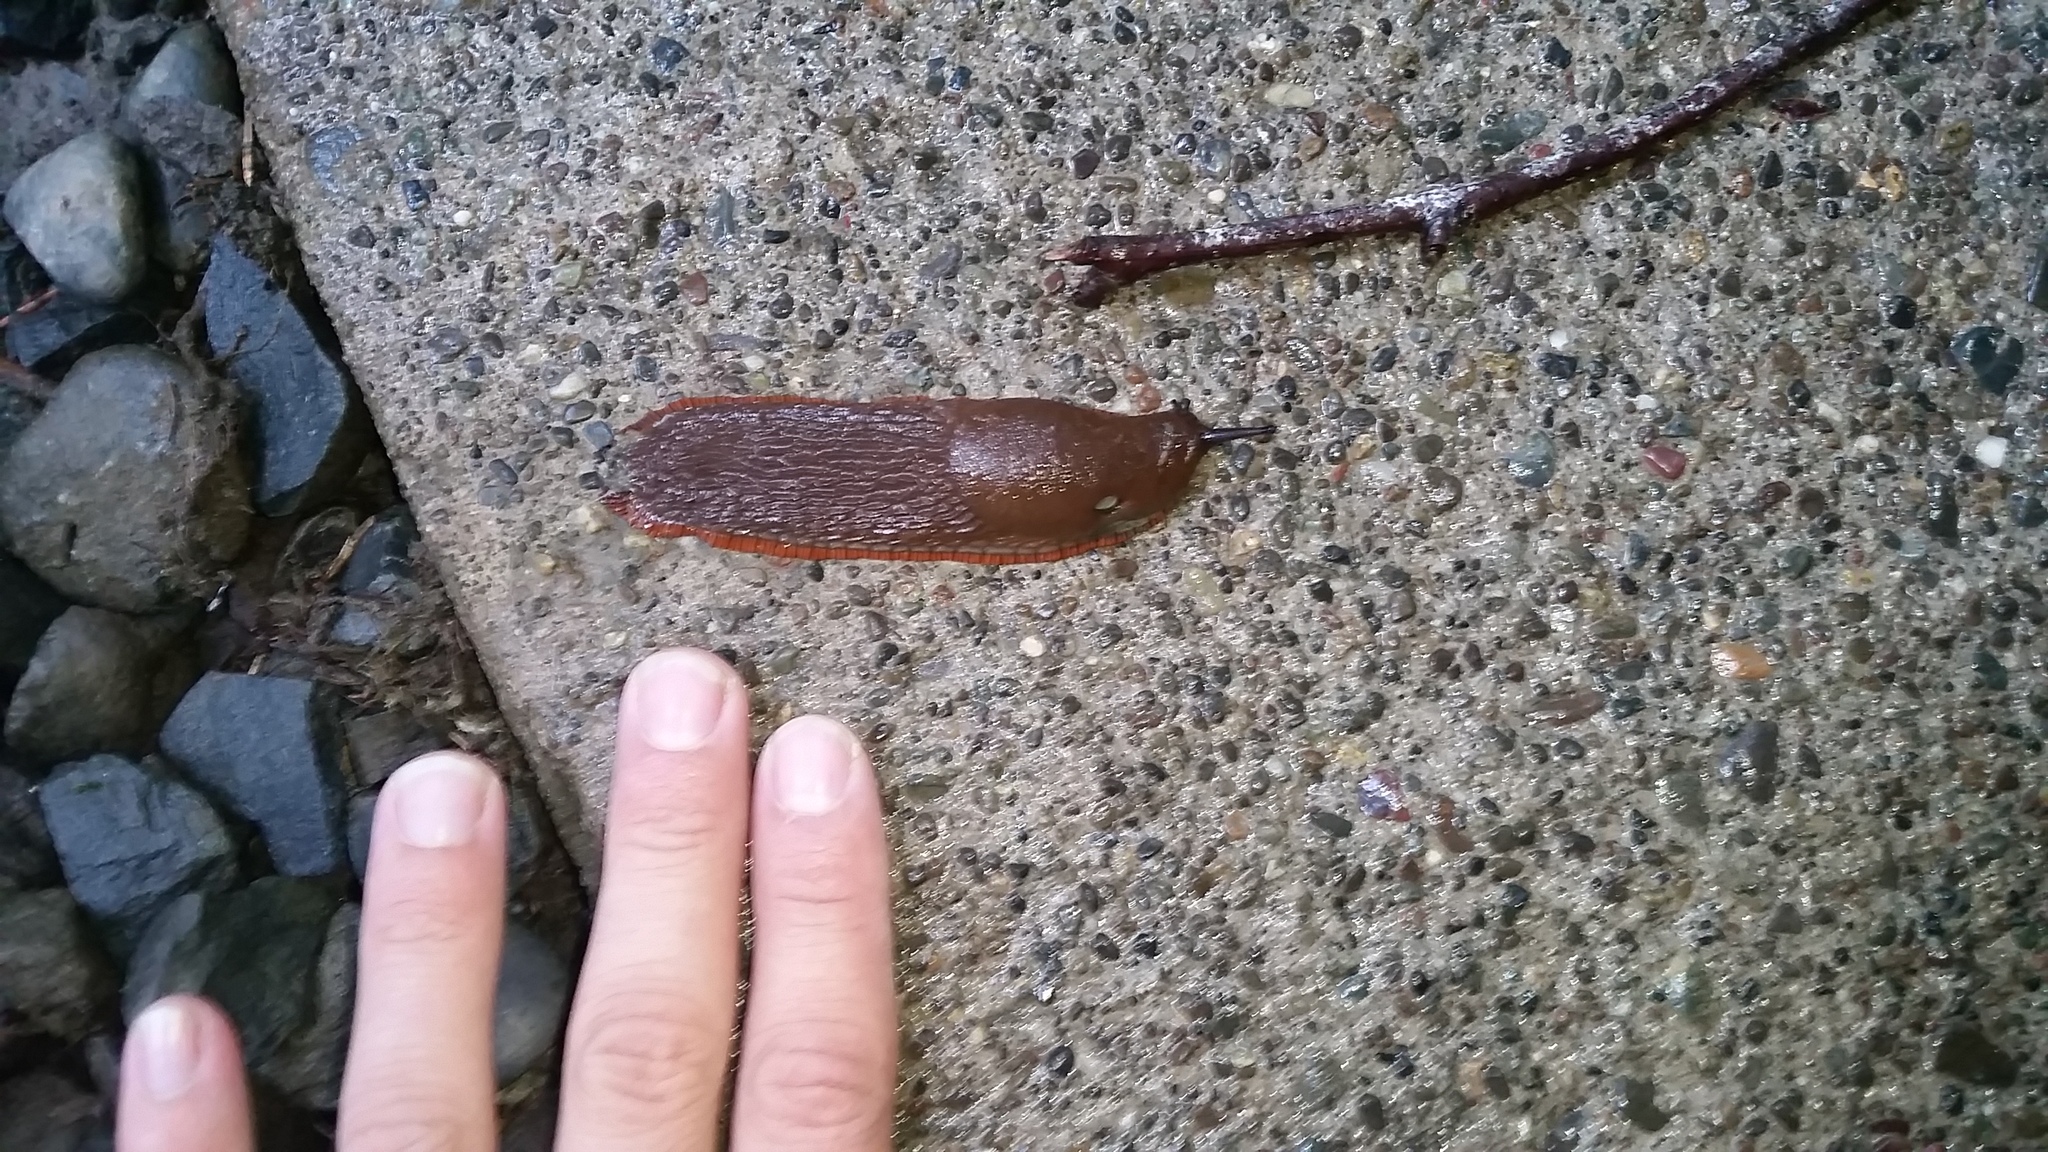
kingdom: Animalia
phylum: Mollusca
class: Gastropoda
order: Stylommatophora
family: Arionidae
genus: Arion
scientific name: Arion rufus
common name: Chocolate arion
